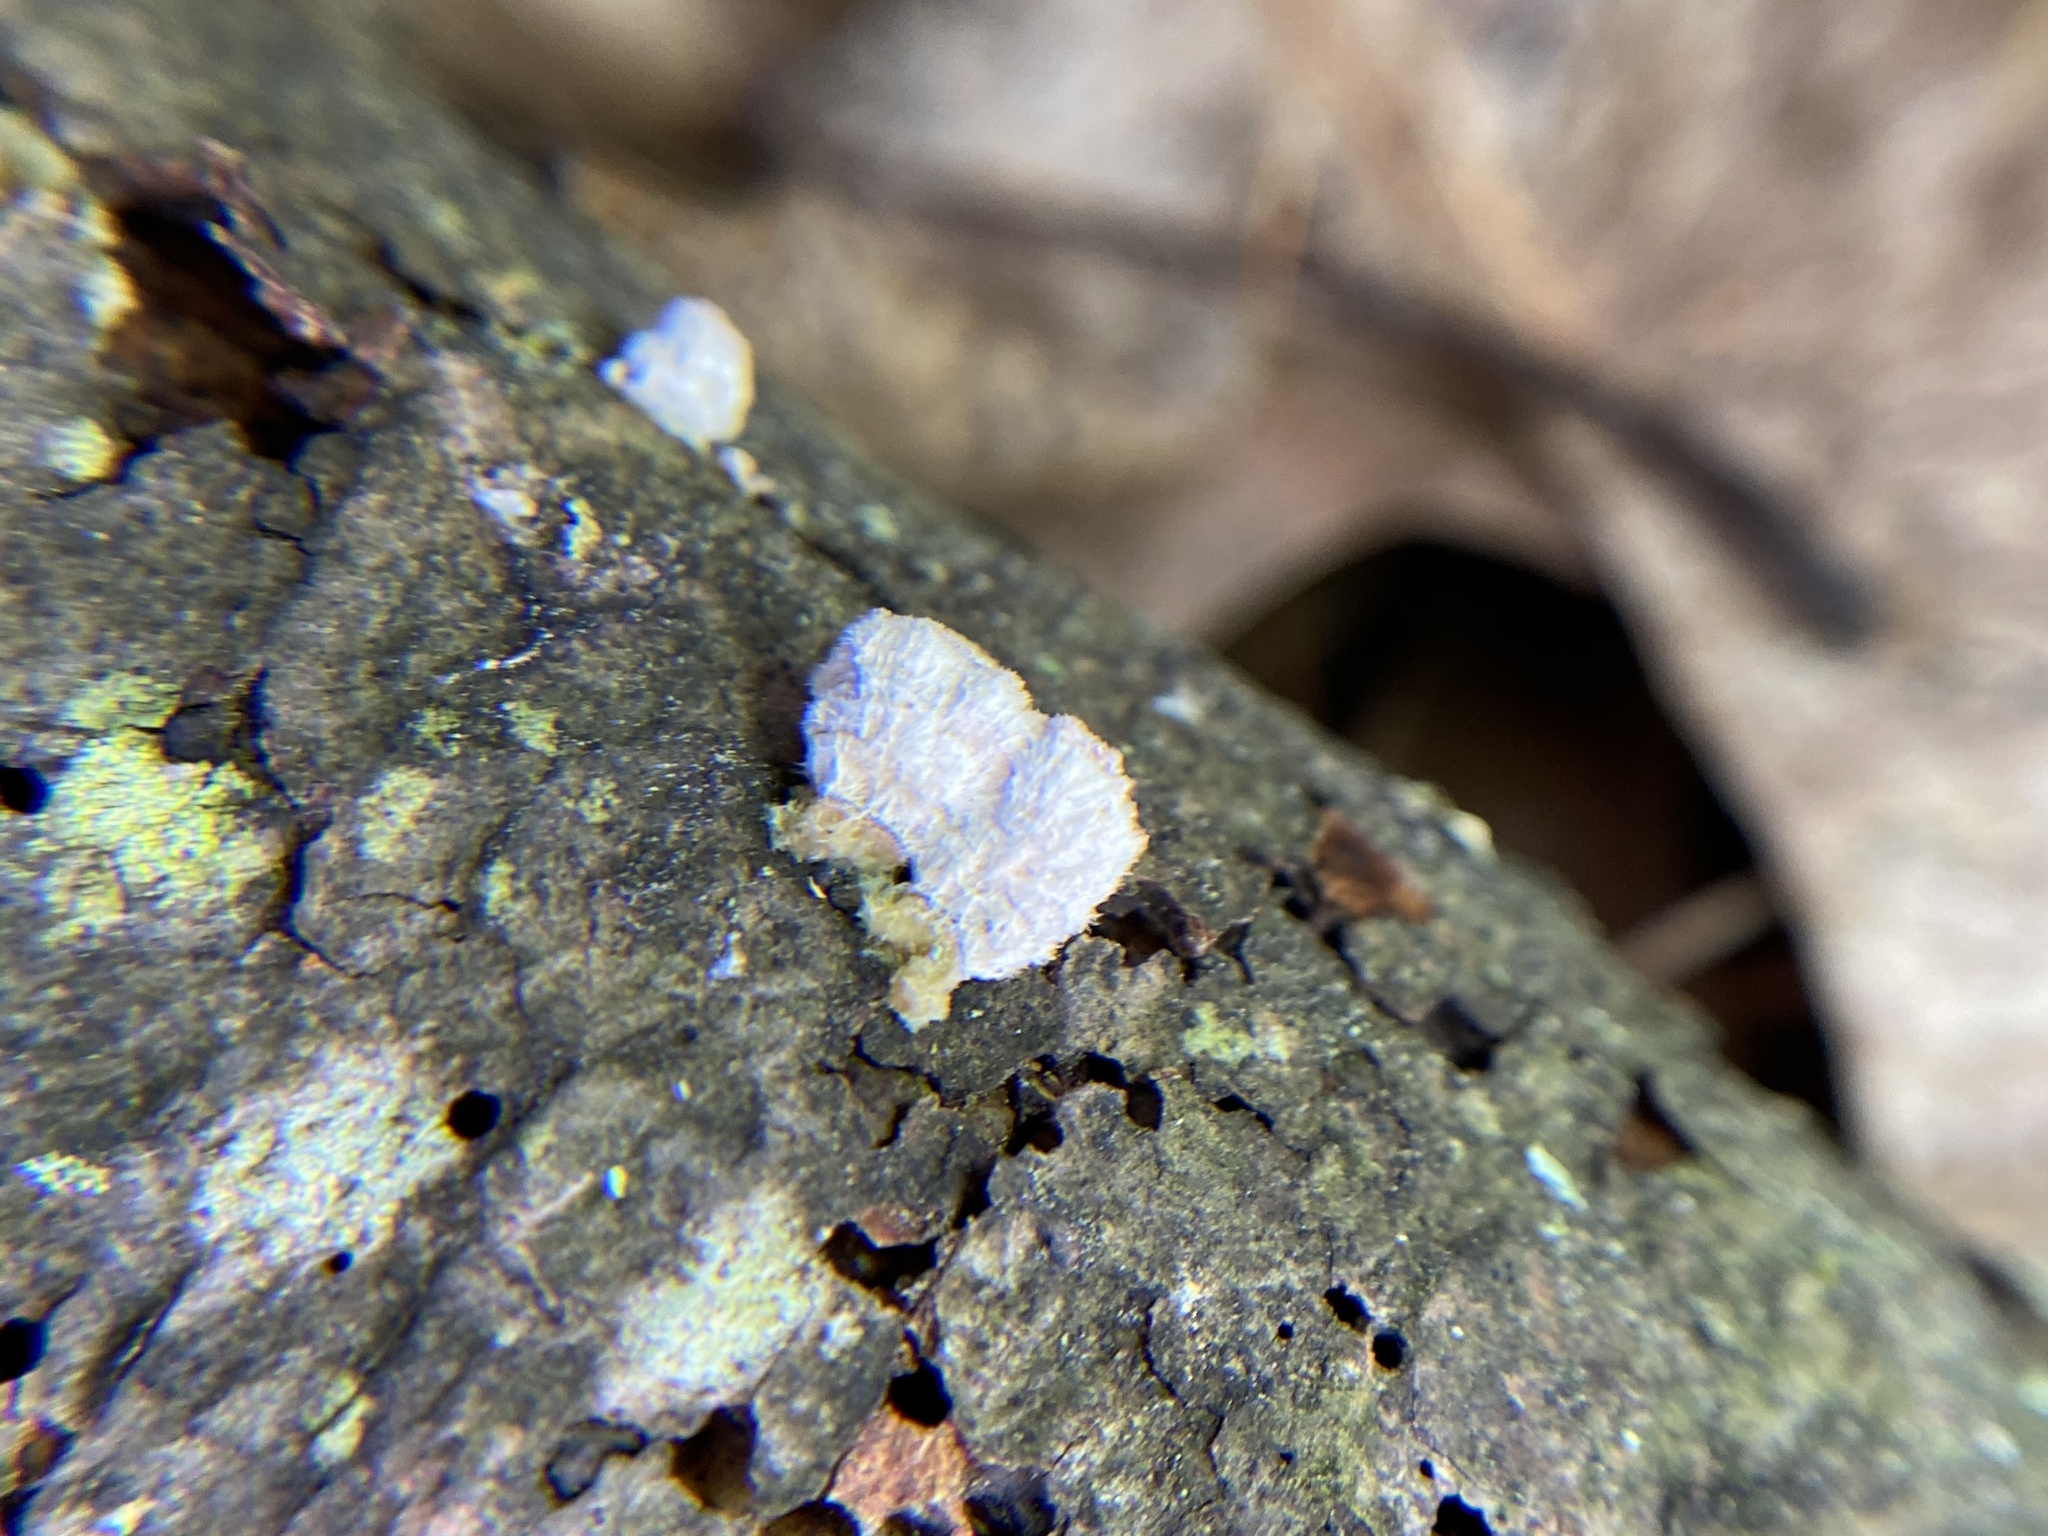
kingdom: Fungi
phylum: Basidiomycota
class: Agaricomycetes
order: Agaricales
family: Schizophyllaceae
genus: Schizophyllum
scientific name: Schizophyllum commune
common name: Common porecrust
